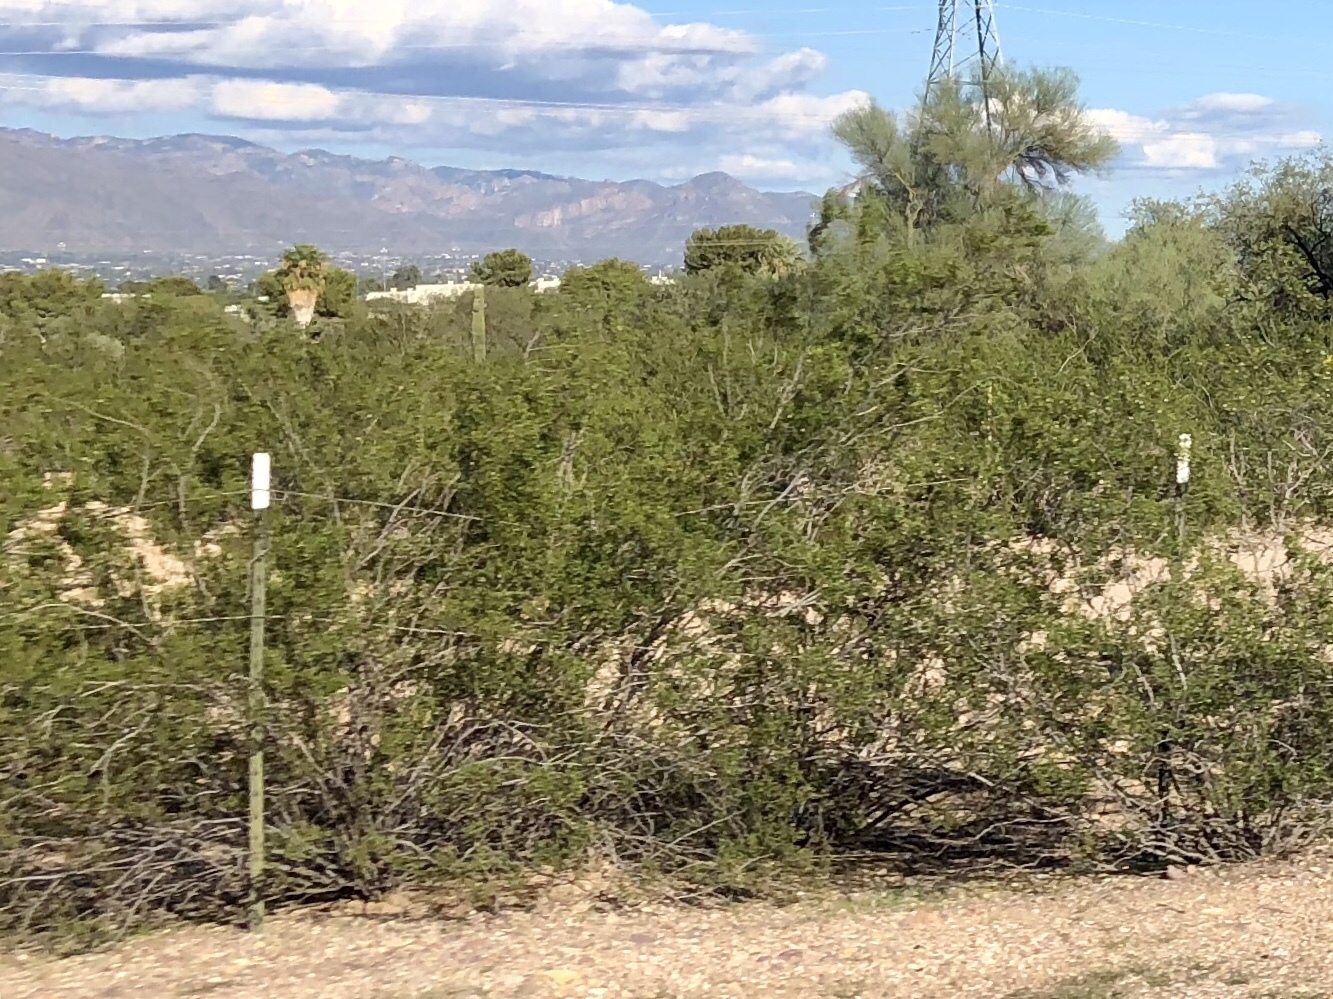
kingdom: Plantae
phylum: Tracheophyta
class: Magnoliopsida
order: Zygophyllales
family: Zygophyllaceae
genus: Larrea
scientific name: Larrea tridentata
